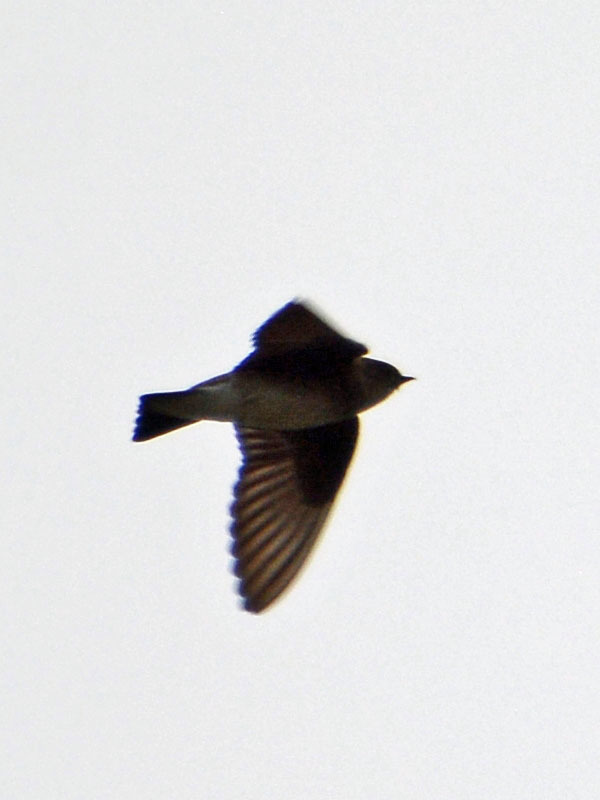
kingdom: Animalia
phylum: Chordata
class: Aves
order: Passeriformes
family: Hirundinidae
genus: Stelgidopteryx
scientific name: Stelgidopteryx serripennis
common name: Northern rough-winged swallow
